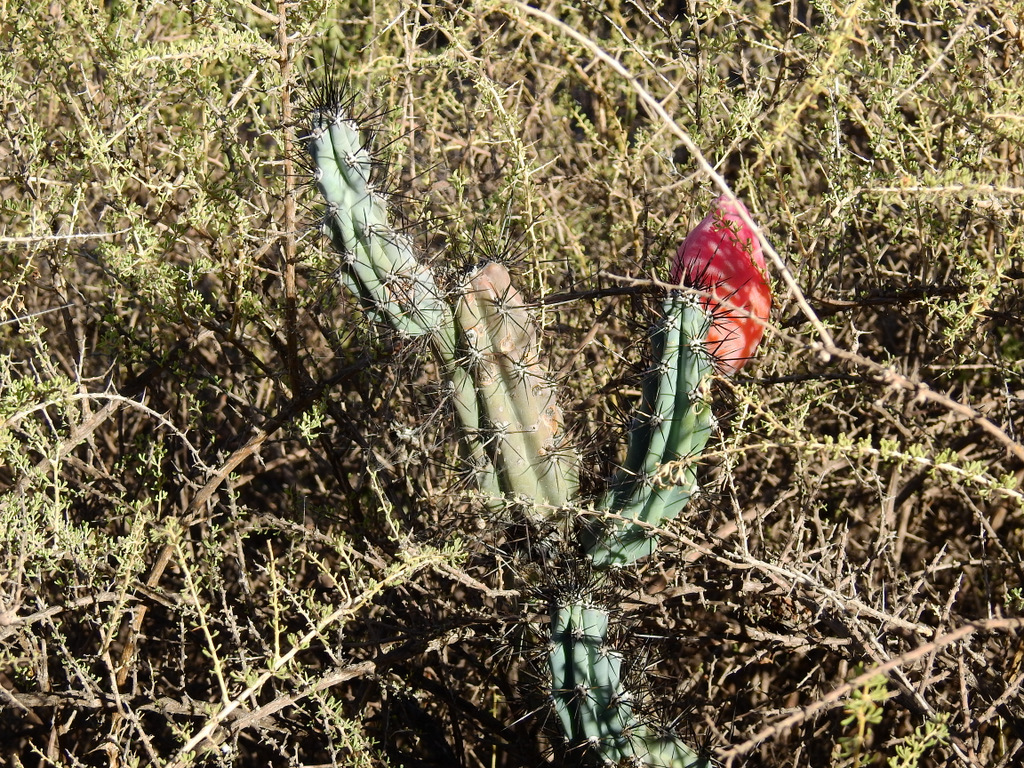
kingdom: Plantae
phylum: Tracheophyta
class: Magnoliopsida
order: Caryophyllales
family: Cactaceae
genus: Cereus
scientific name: Cereus aethiops
